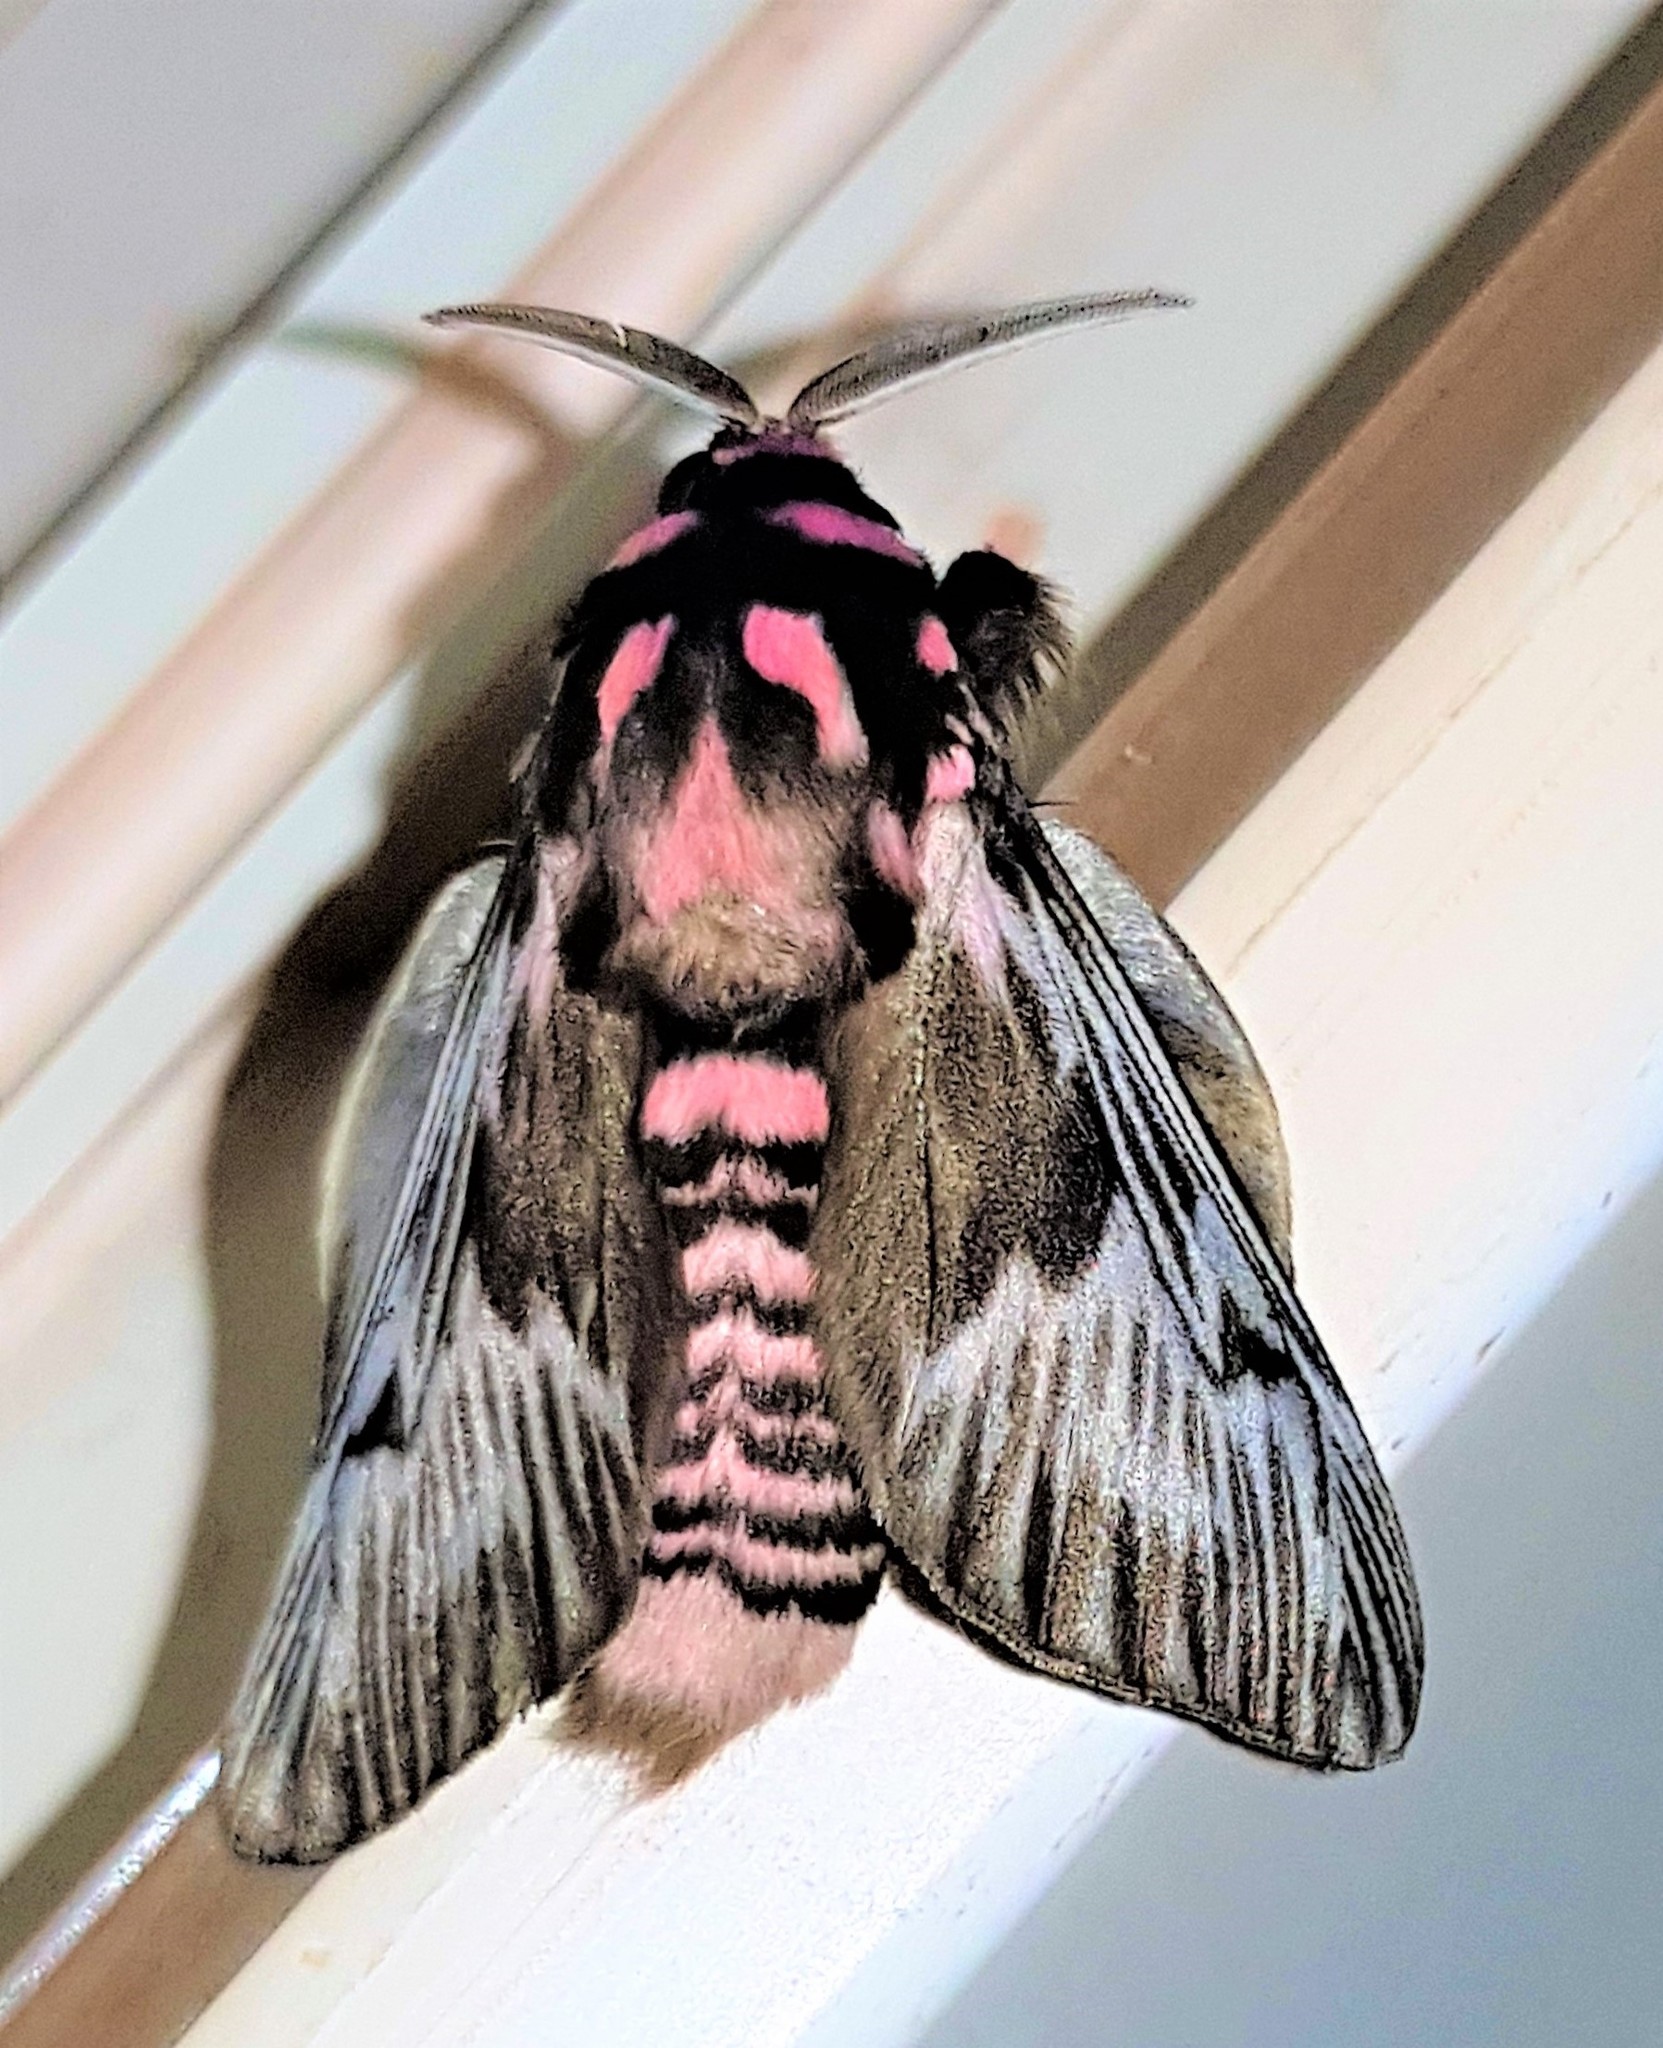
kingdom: Animalia
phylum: Arthropoda
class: Insecta
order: Lepidoptera
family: Megalopygidae
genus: Megalopyge
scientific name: Megalopyge lanata
